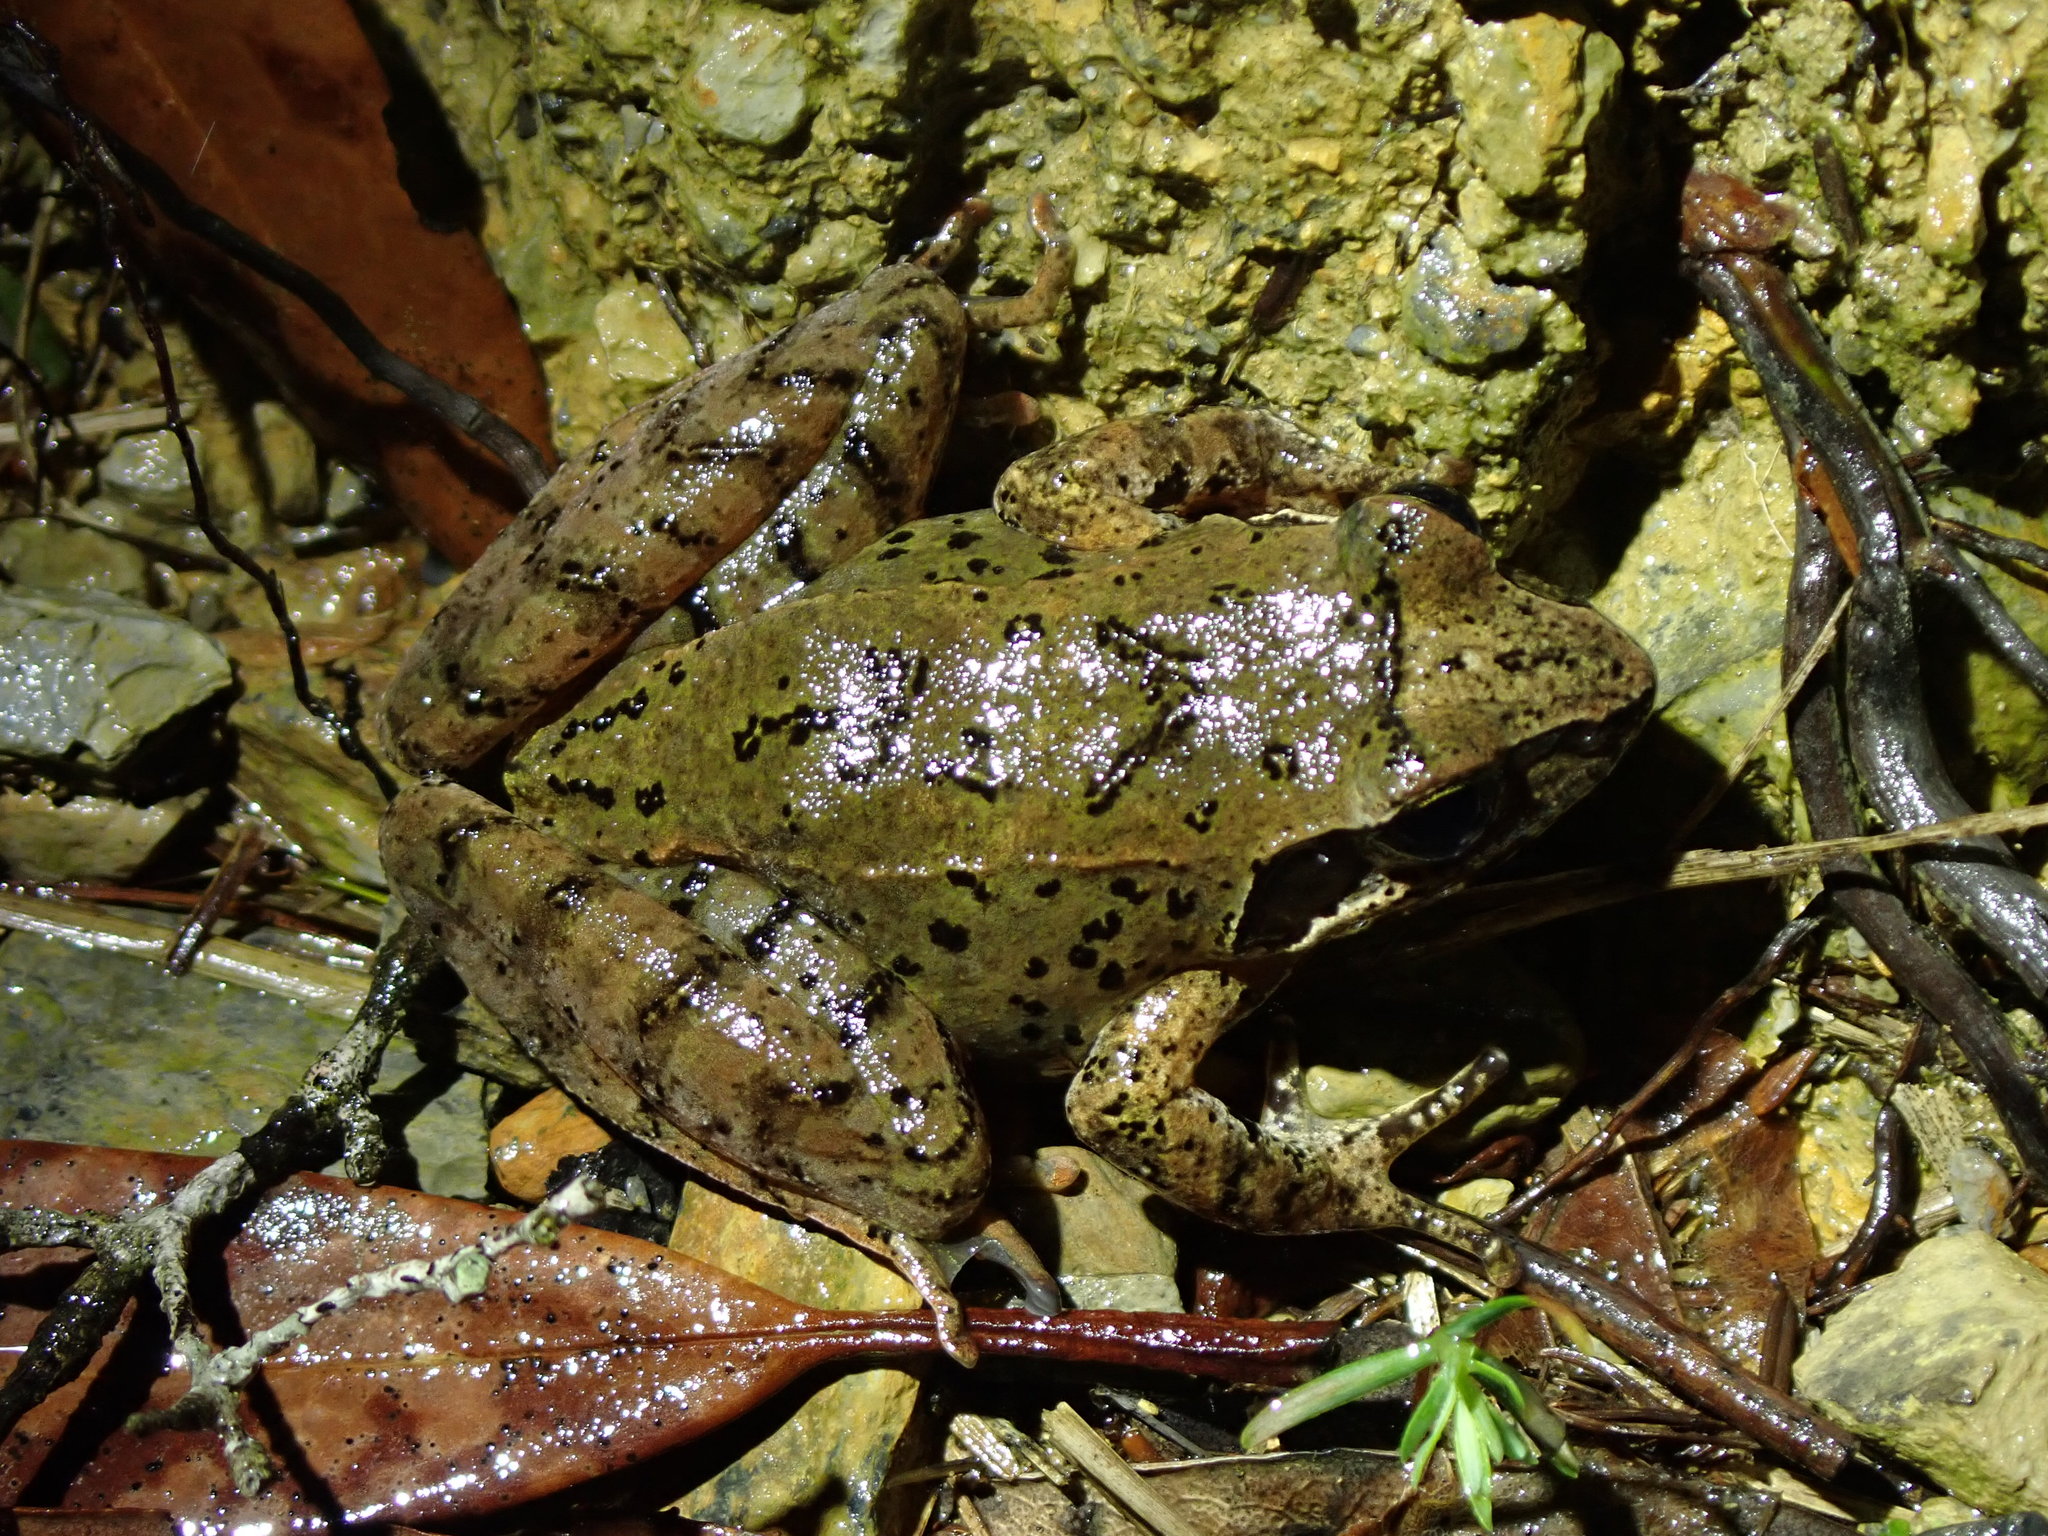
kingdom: Animalia
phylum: Chordata
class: Amphibia
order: Anura
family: Ranidae
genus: Rana
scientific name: Rana sauteri
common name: Kanshirei village frog
